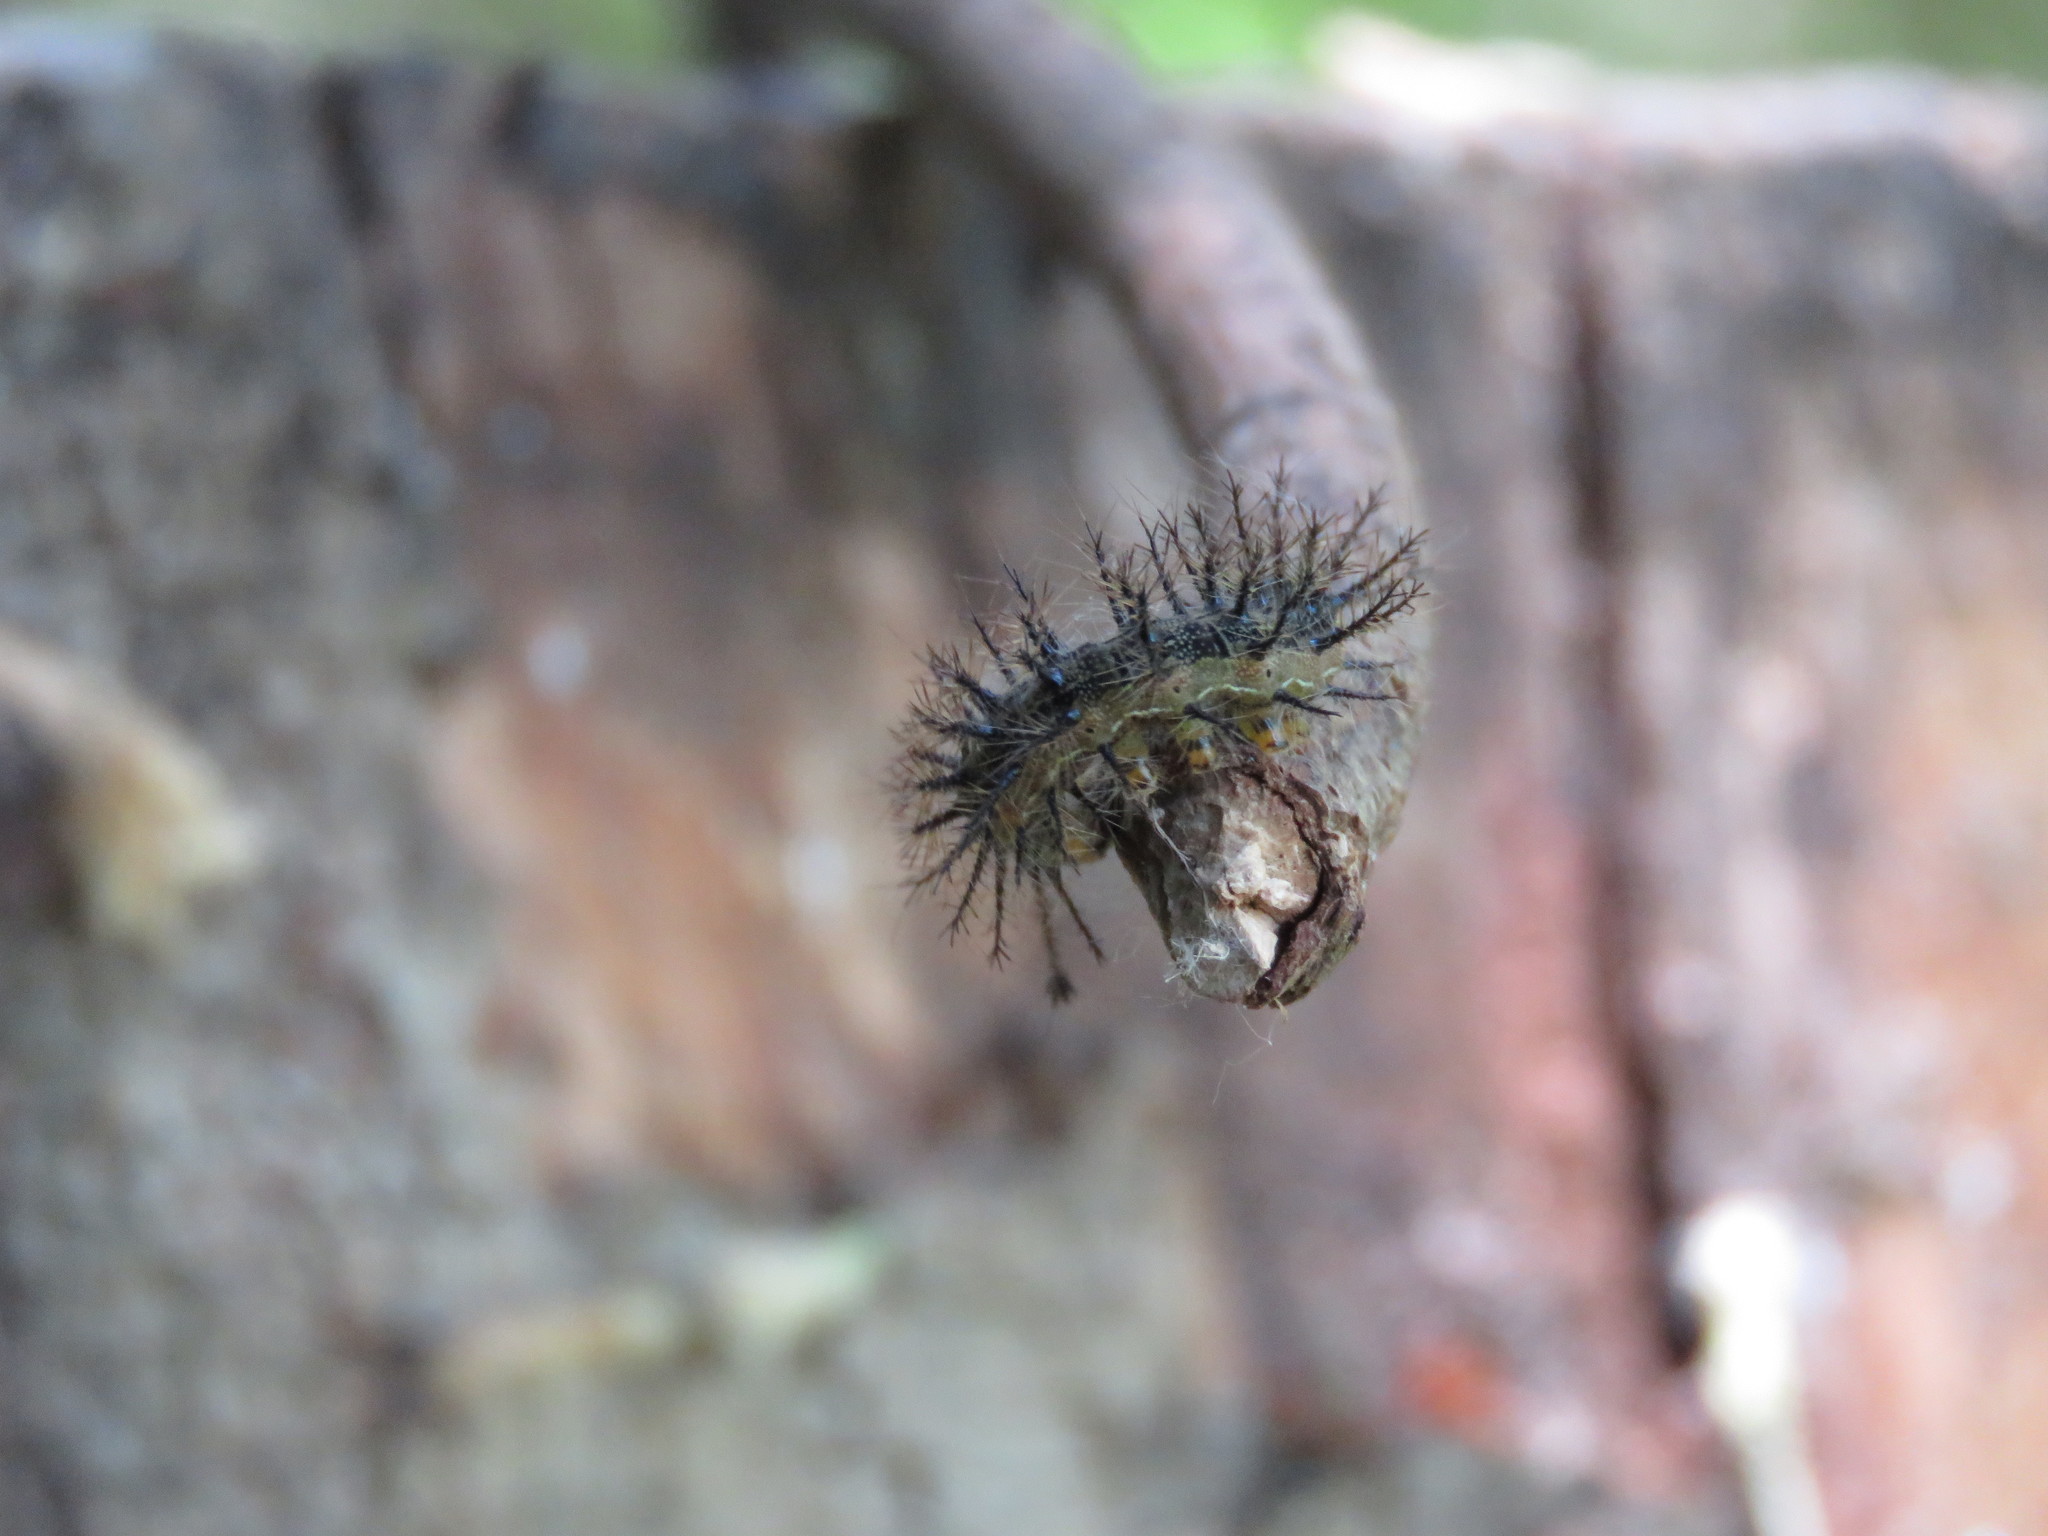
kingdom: Animalia
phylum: Arthropoda
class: Insecta
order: Lepidoptera
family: Saturniidae
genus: Hylesia
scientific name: Hylesia nigricans
